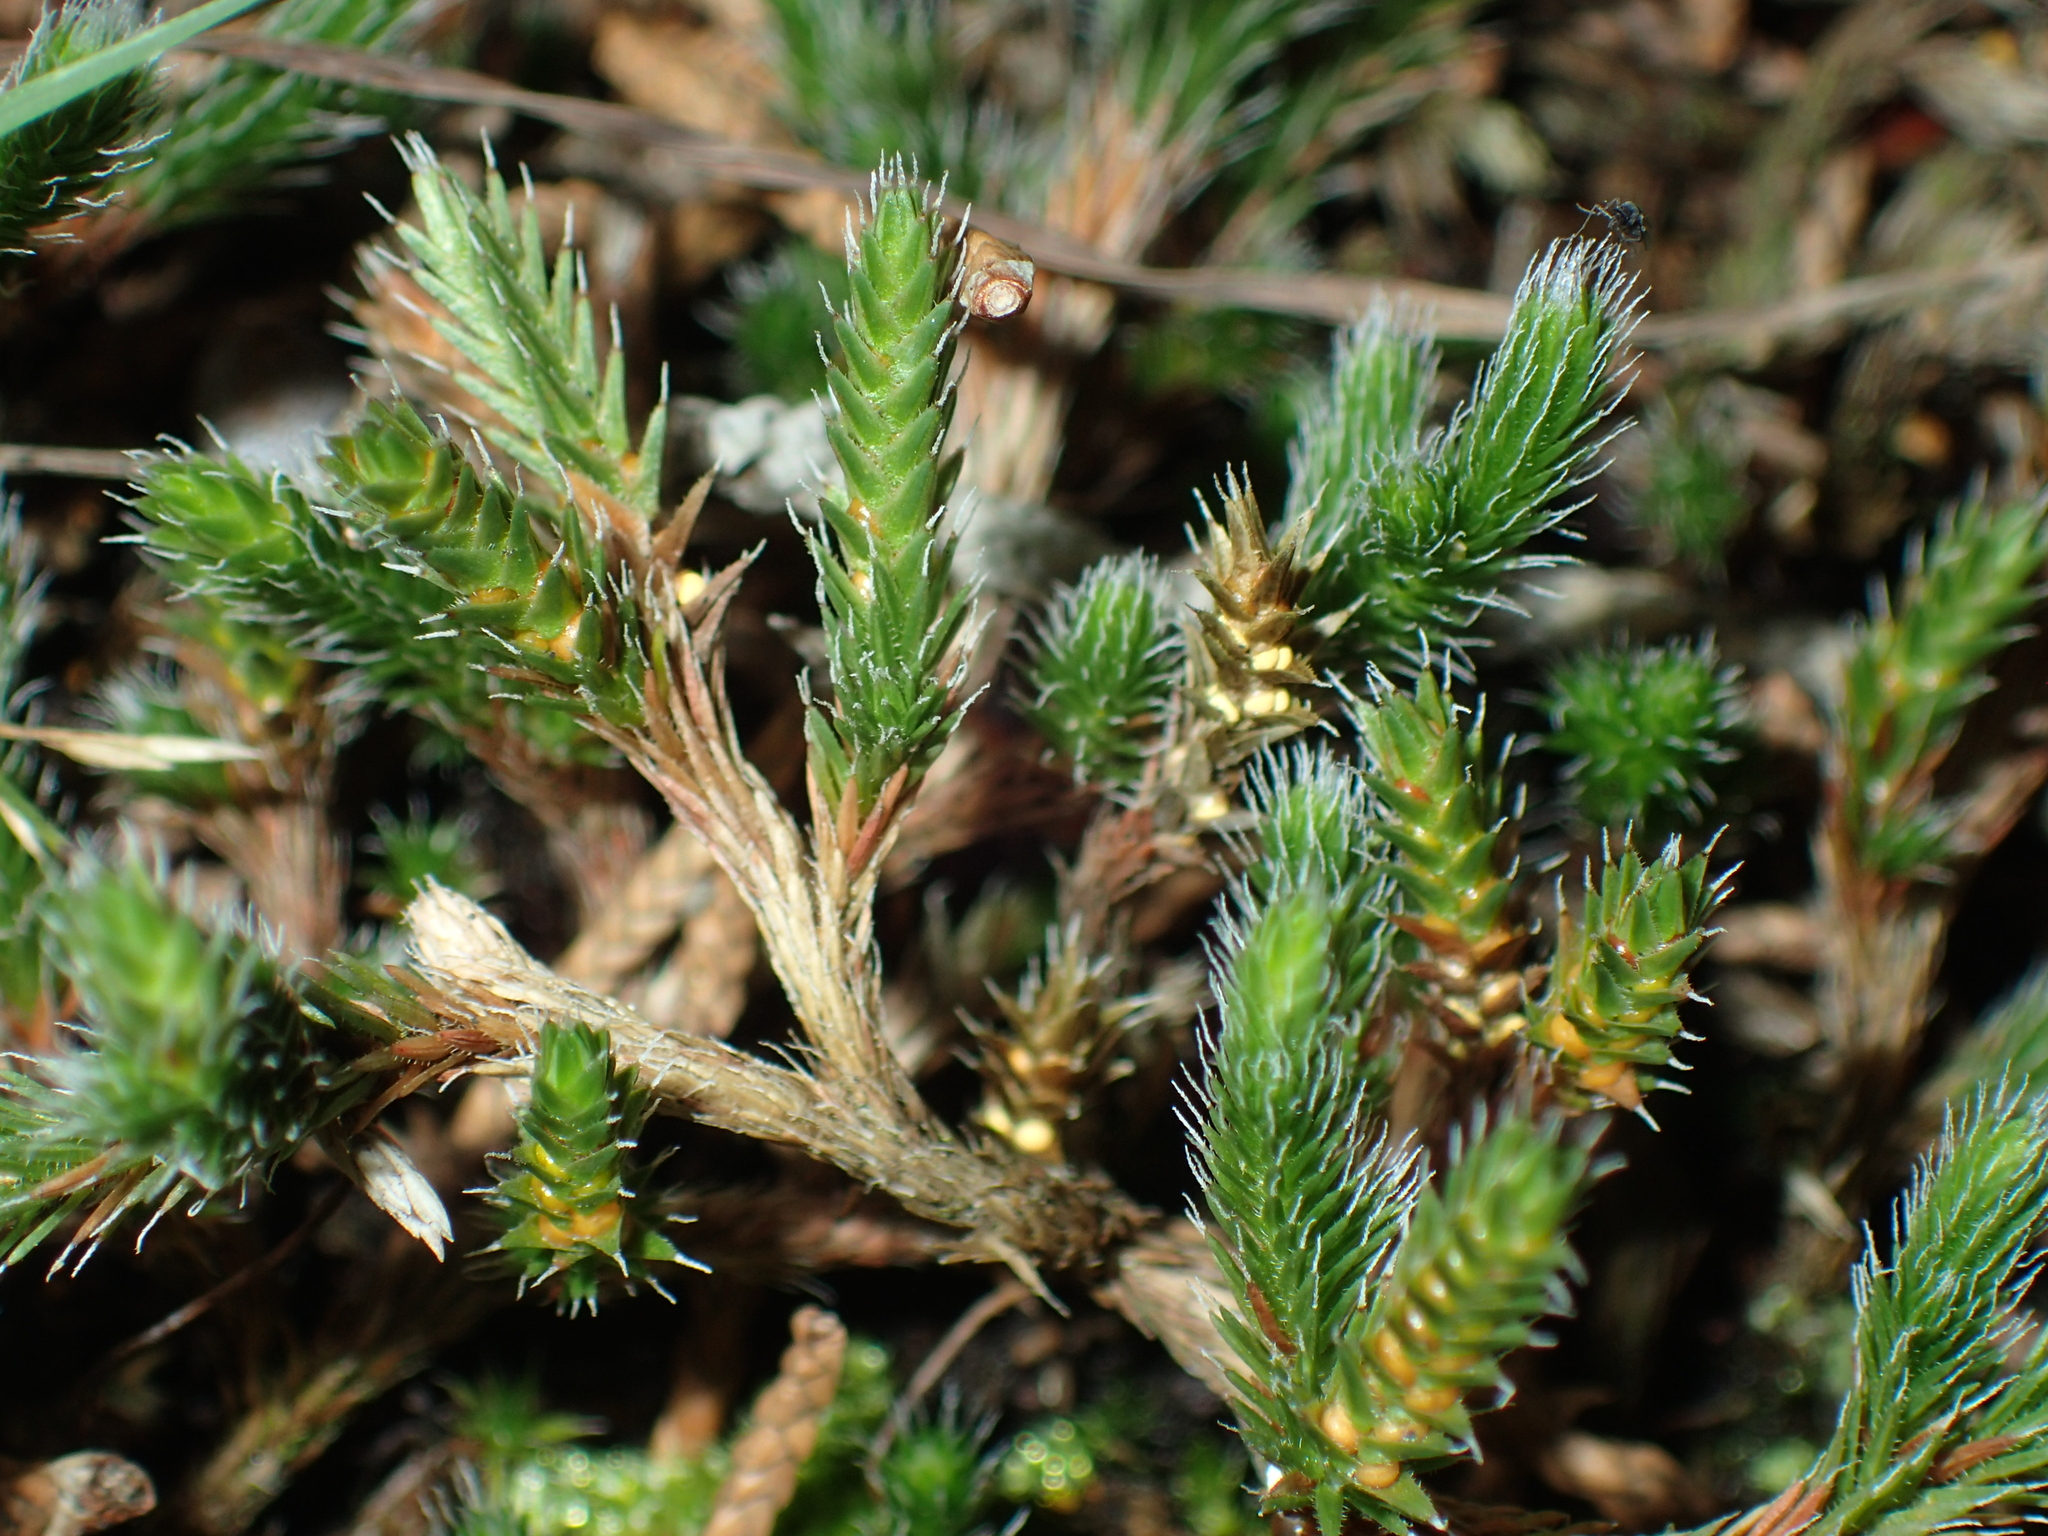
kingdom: Plantae
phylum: Tracheophyta
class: Lycopodiopsida
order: Selaginellales
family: Selaginellaceae
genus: Selaginella
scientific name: Selaginella rupestris
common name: Dwarf spikemoss
